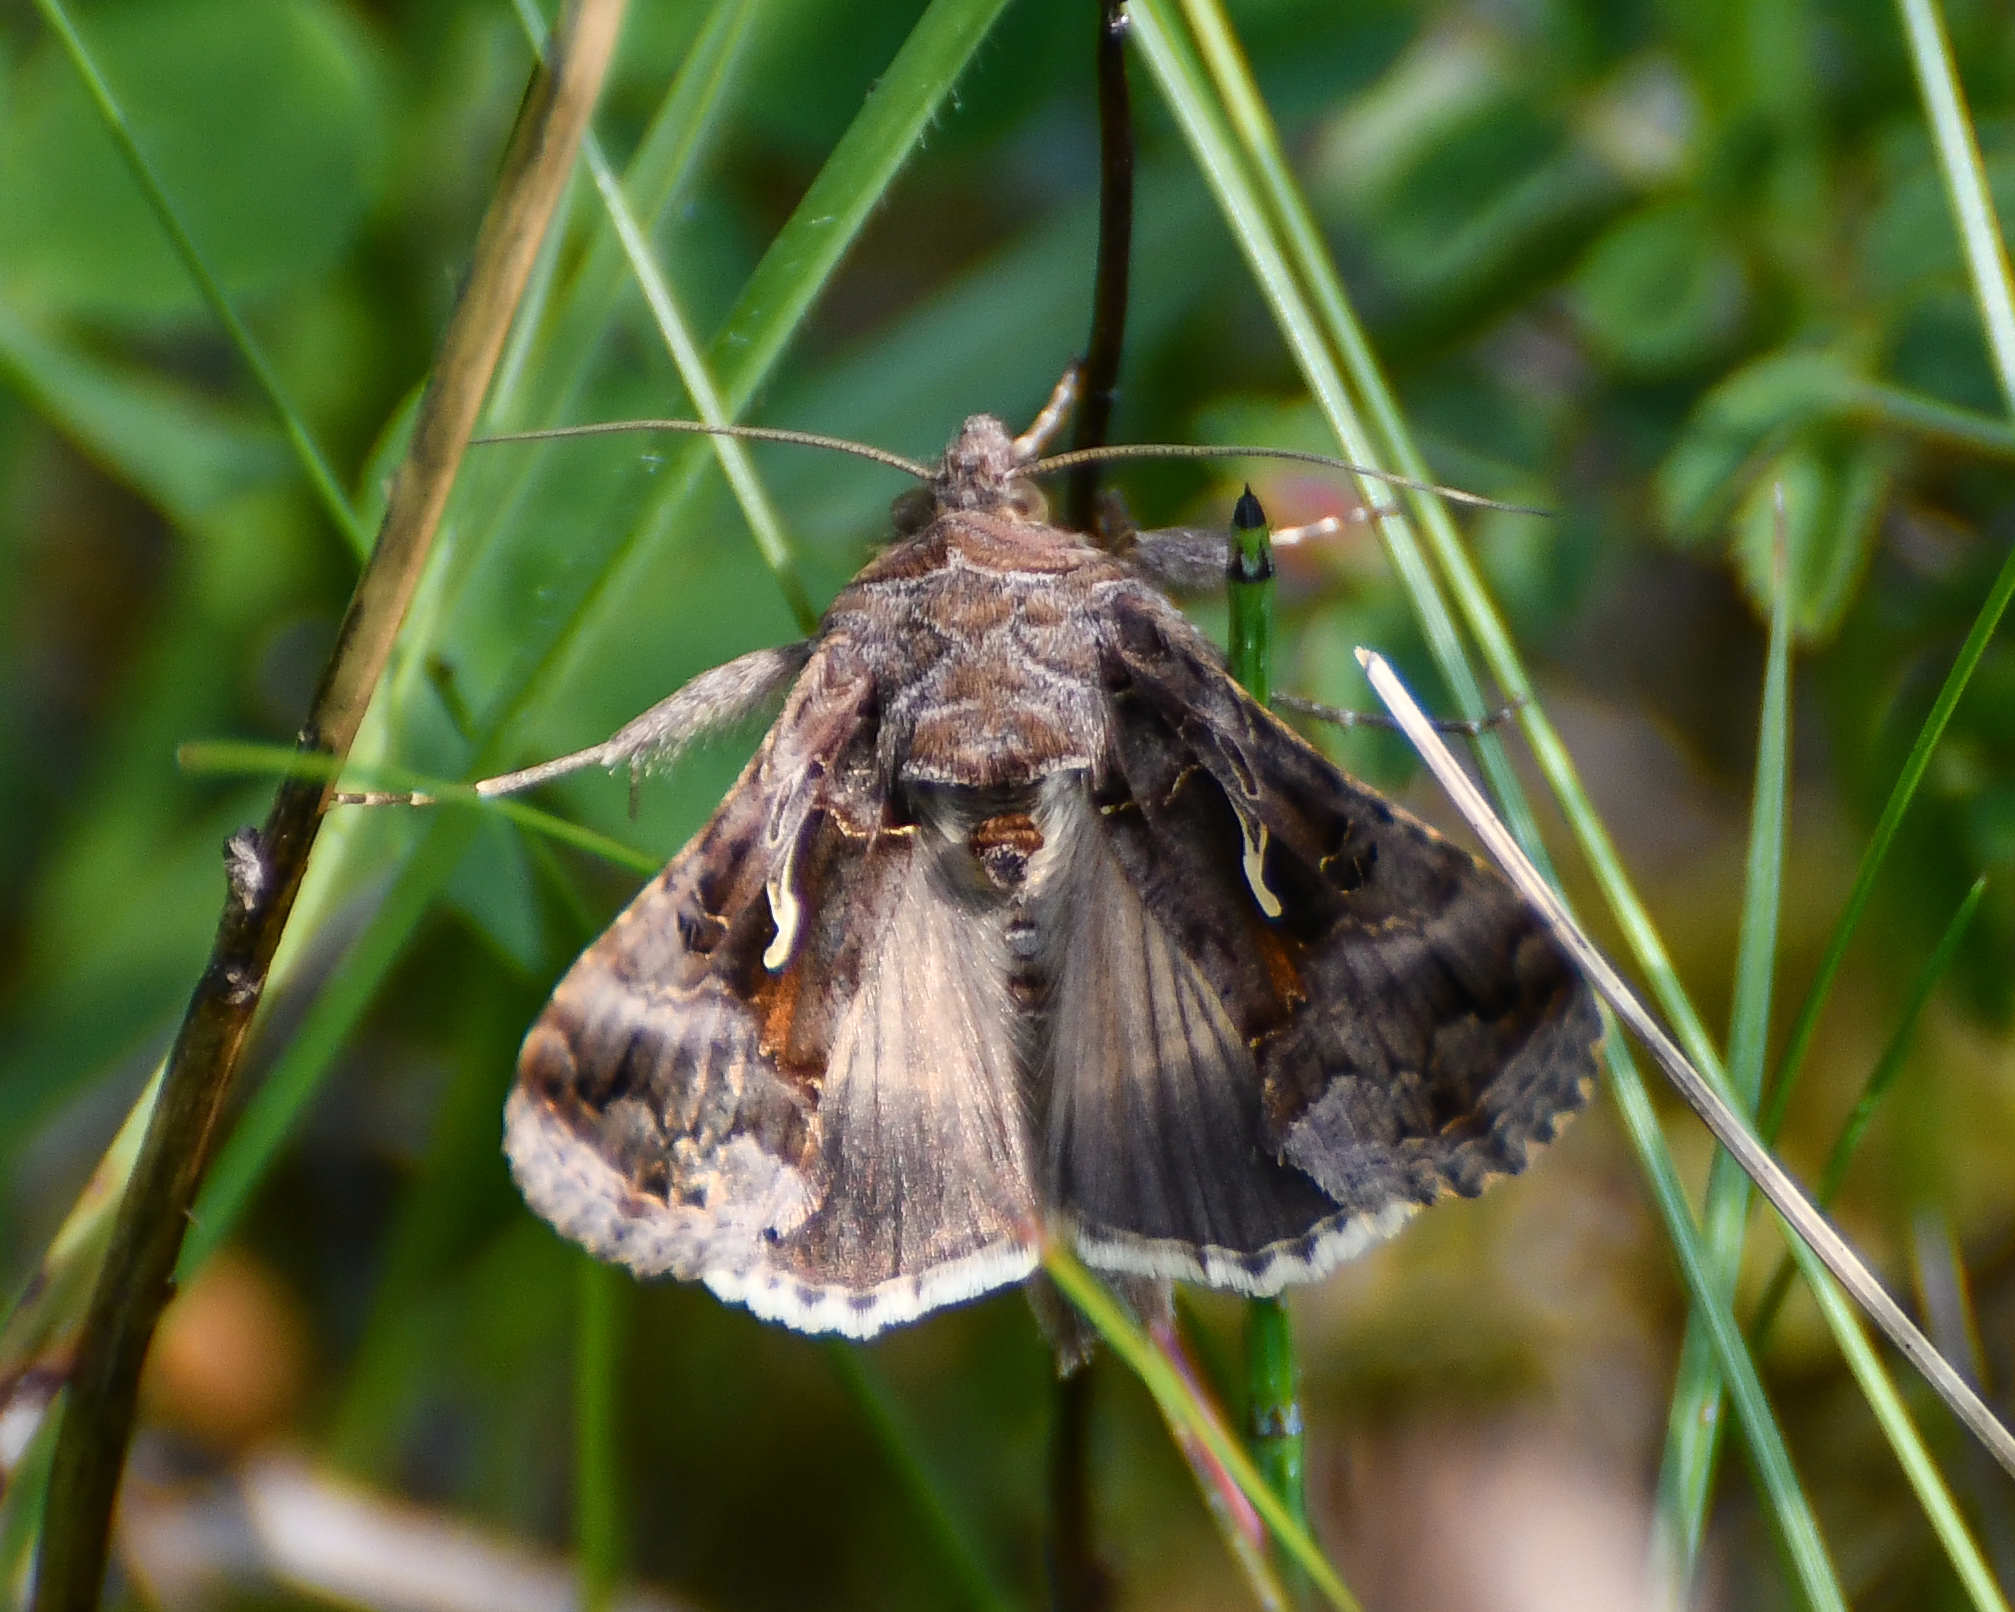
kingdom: Animalia
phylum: Arthropoda
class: Insecta
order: Lepidoptera
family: Noctuidae
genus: Autographa
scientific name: Autographa gamma
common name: Silver y
